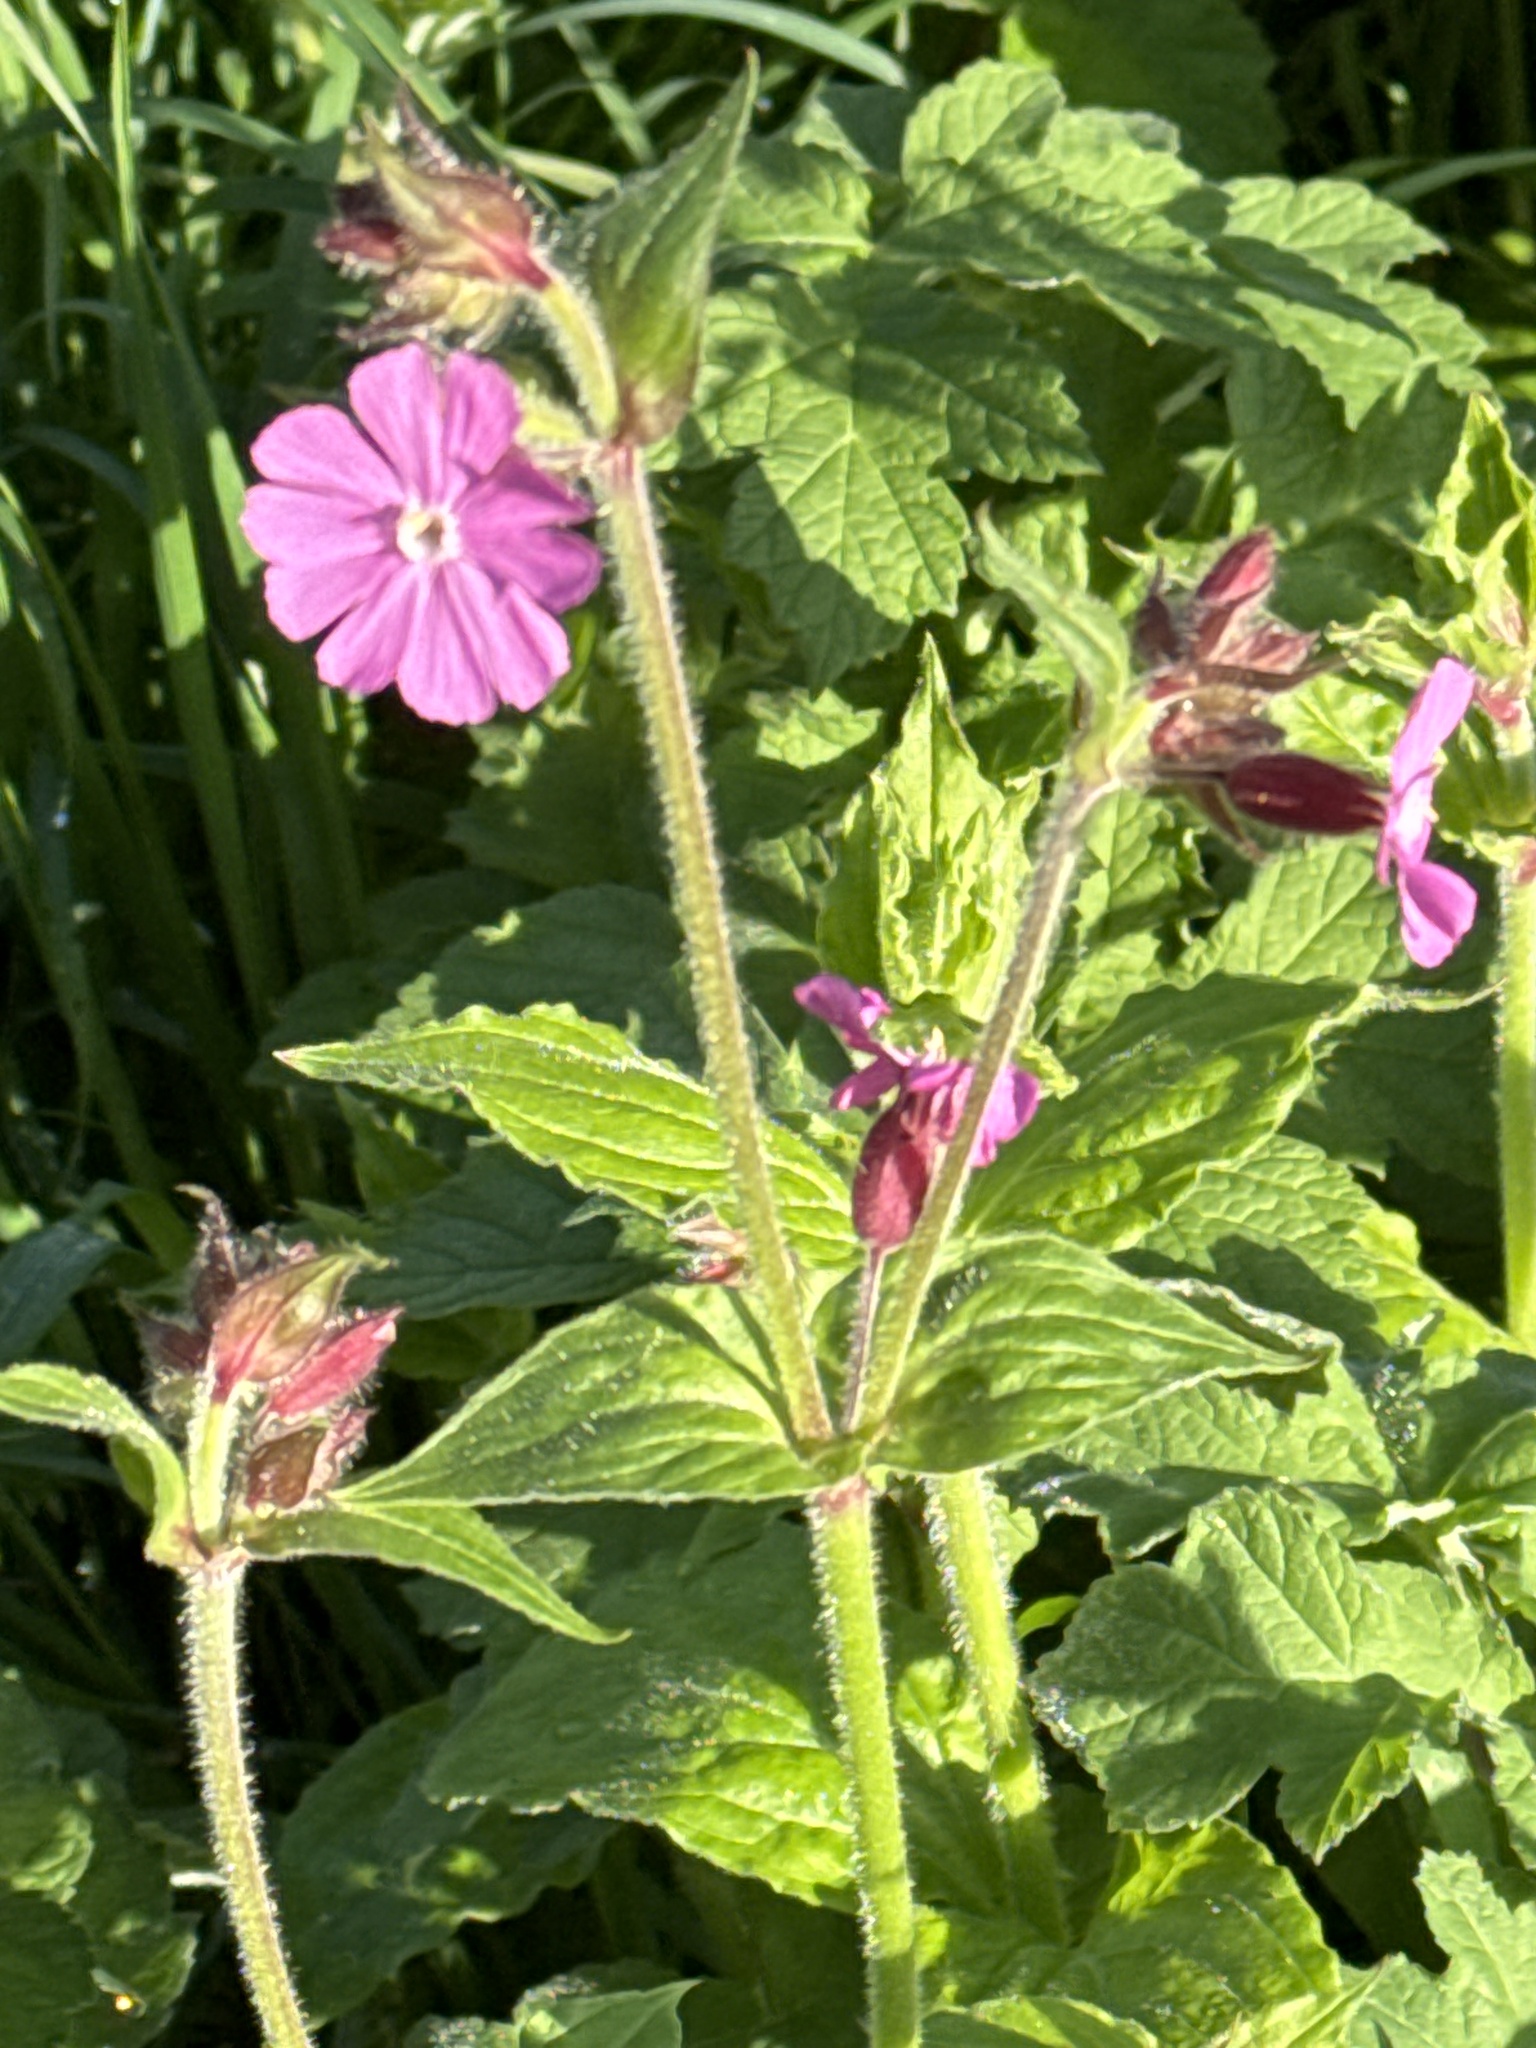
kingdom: Animalia
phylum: Arthropoda
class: Insecta
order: Lepidoptera
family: Pieridae
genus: Anthocharis
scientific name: Anthocharis cardamines
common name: Orange-tip
